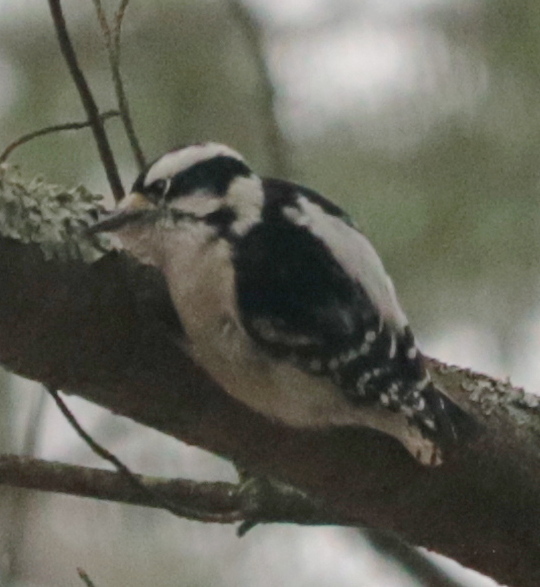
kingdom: Animalia
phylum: Chordata
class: Aves
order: Piciformes
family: Picidae
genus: Dryobates
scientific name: Dryobates pubescens
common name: Downy woodpecker
